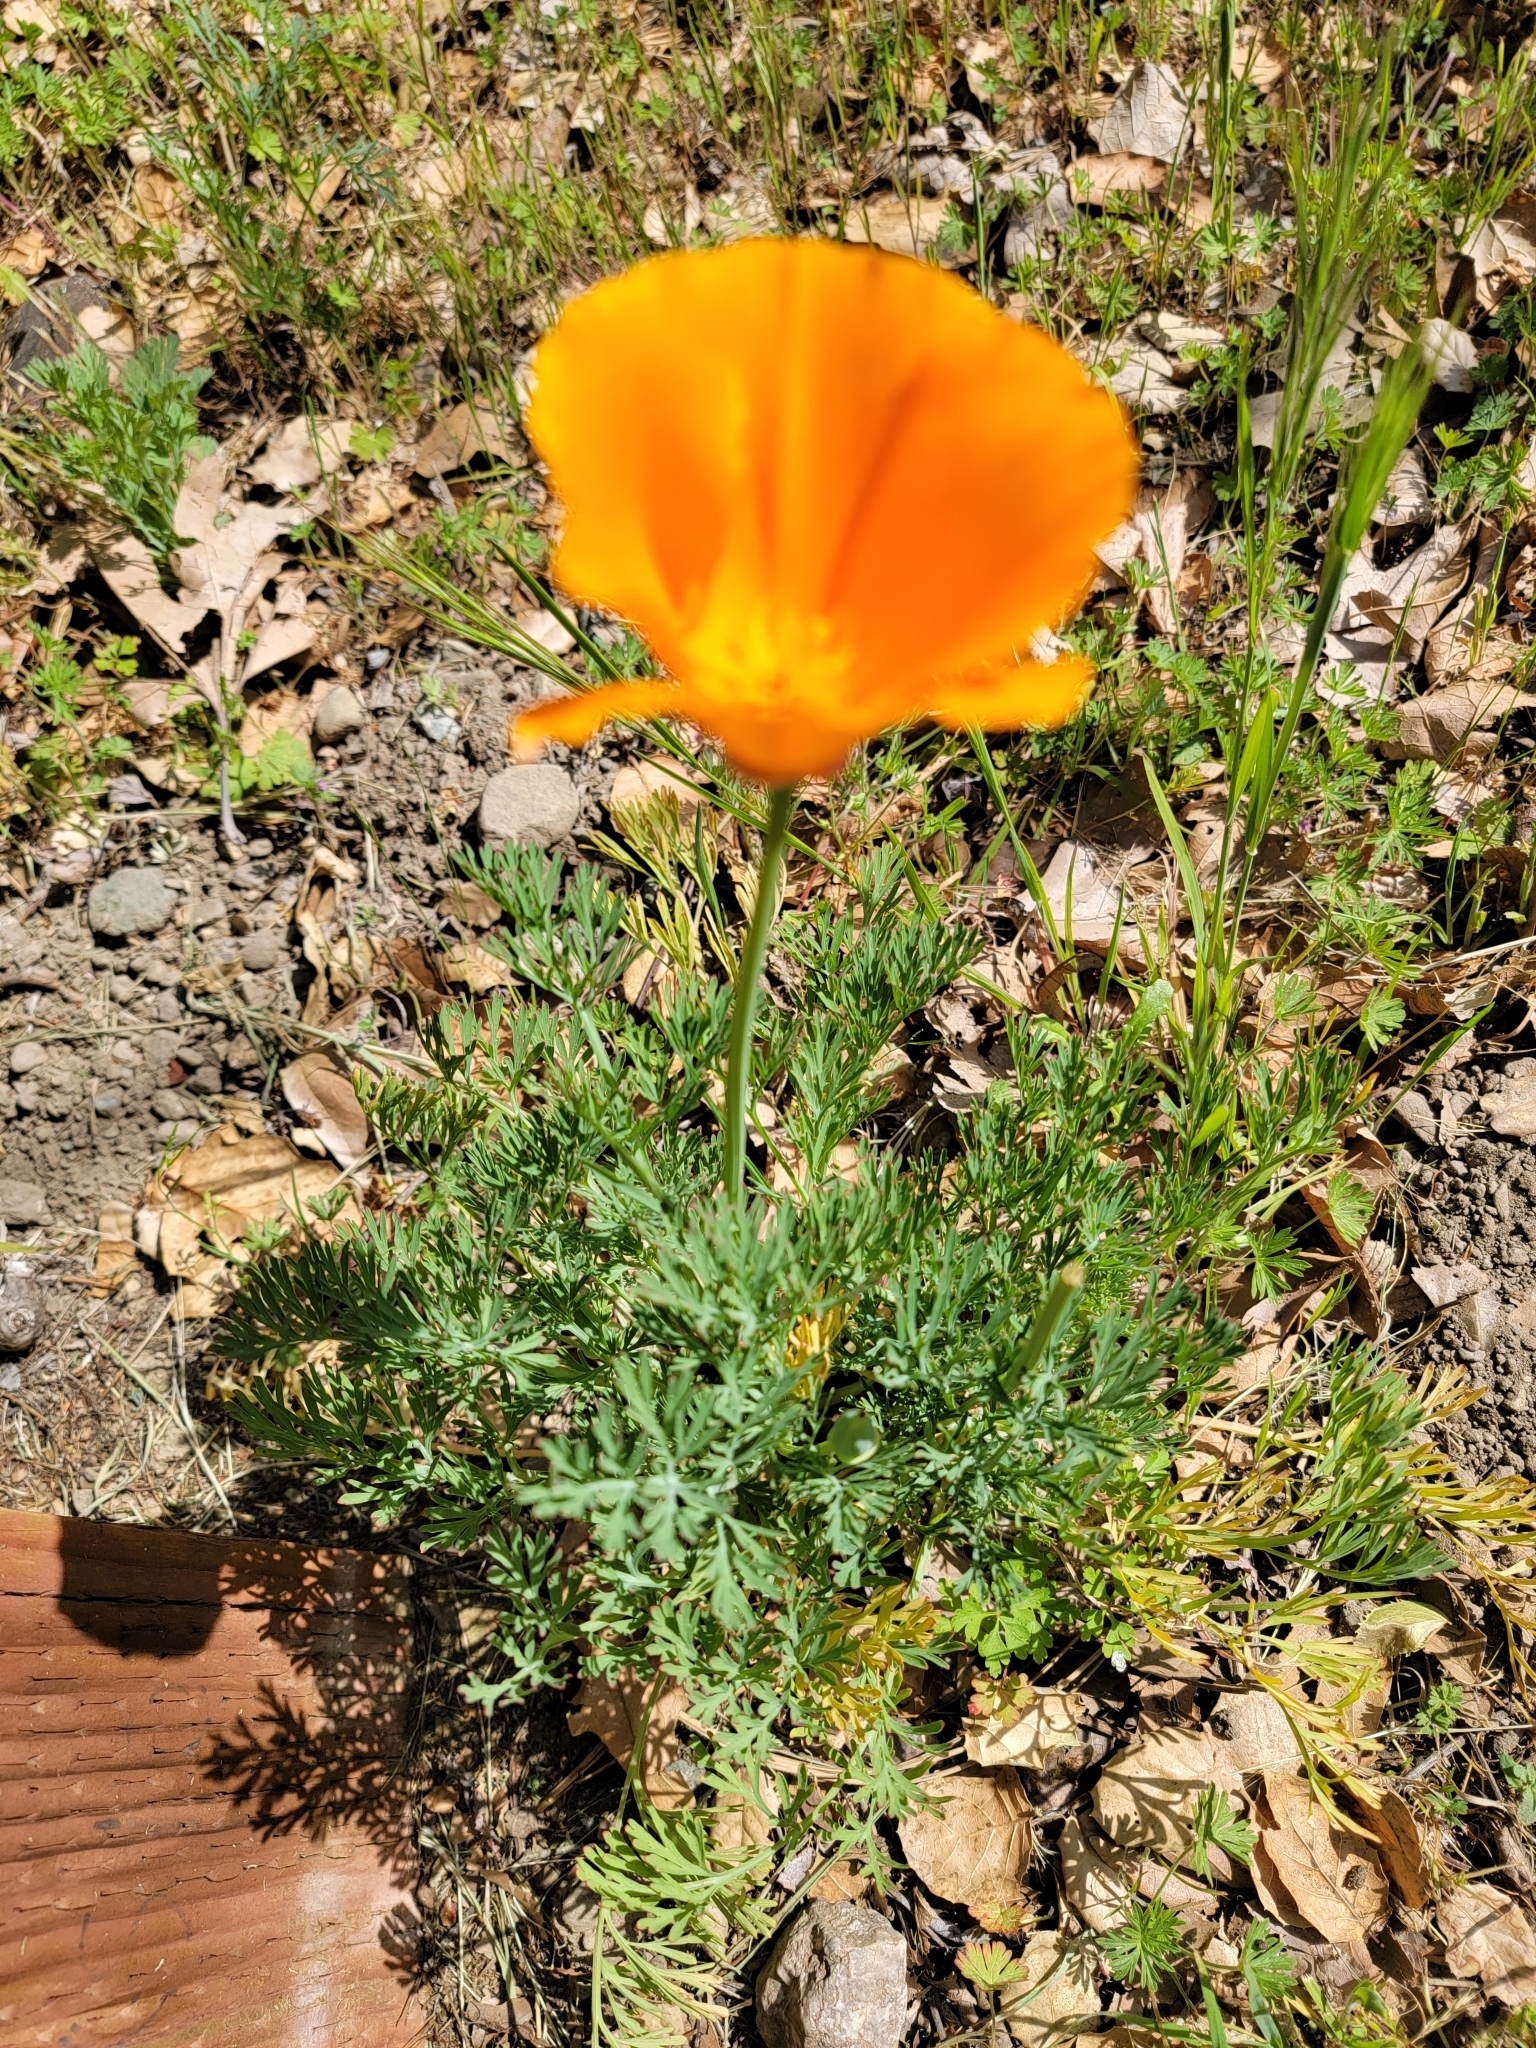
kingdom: Plantae
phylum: Tracheophyta
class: Magnoliopsida
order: Ranunculales
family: Papaveraceae
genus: Eschscholzia
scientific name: Eschscholzia californica
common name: California poppy
